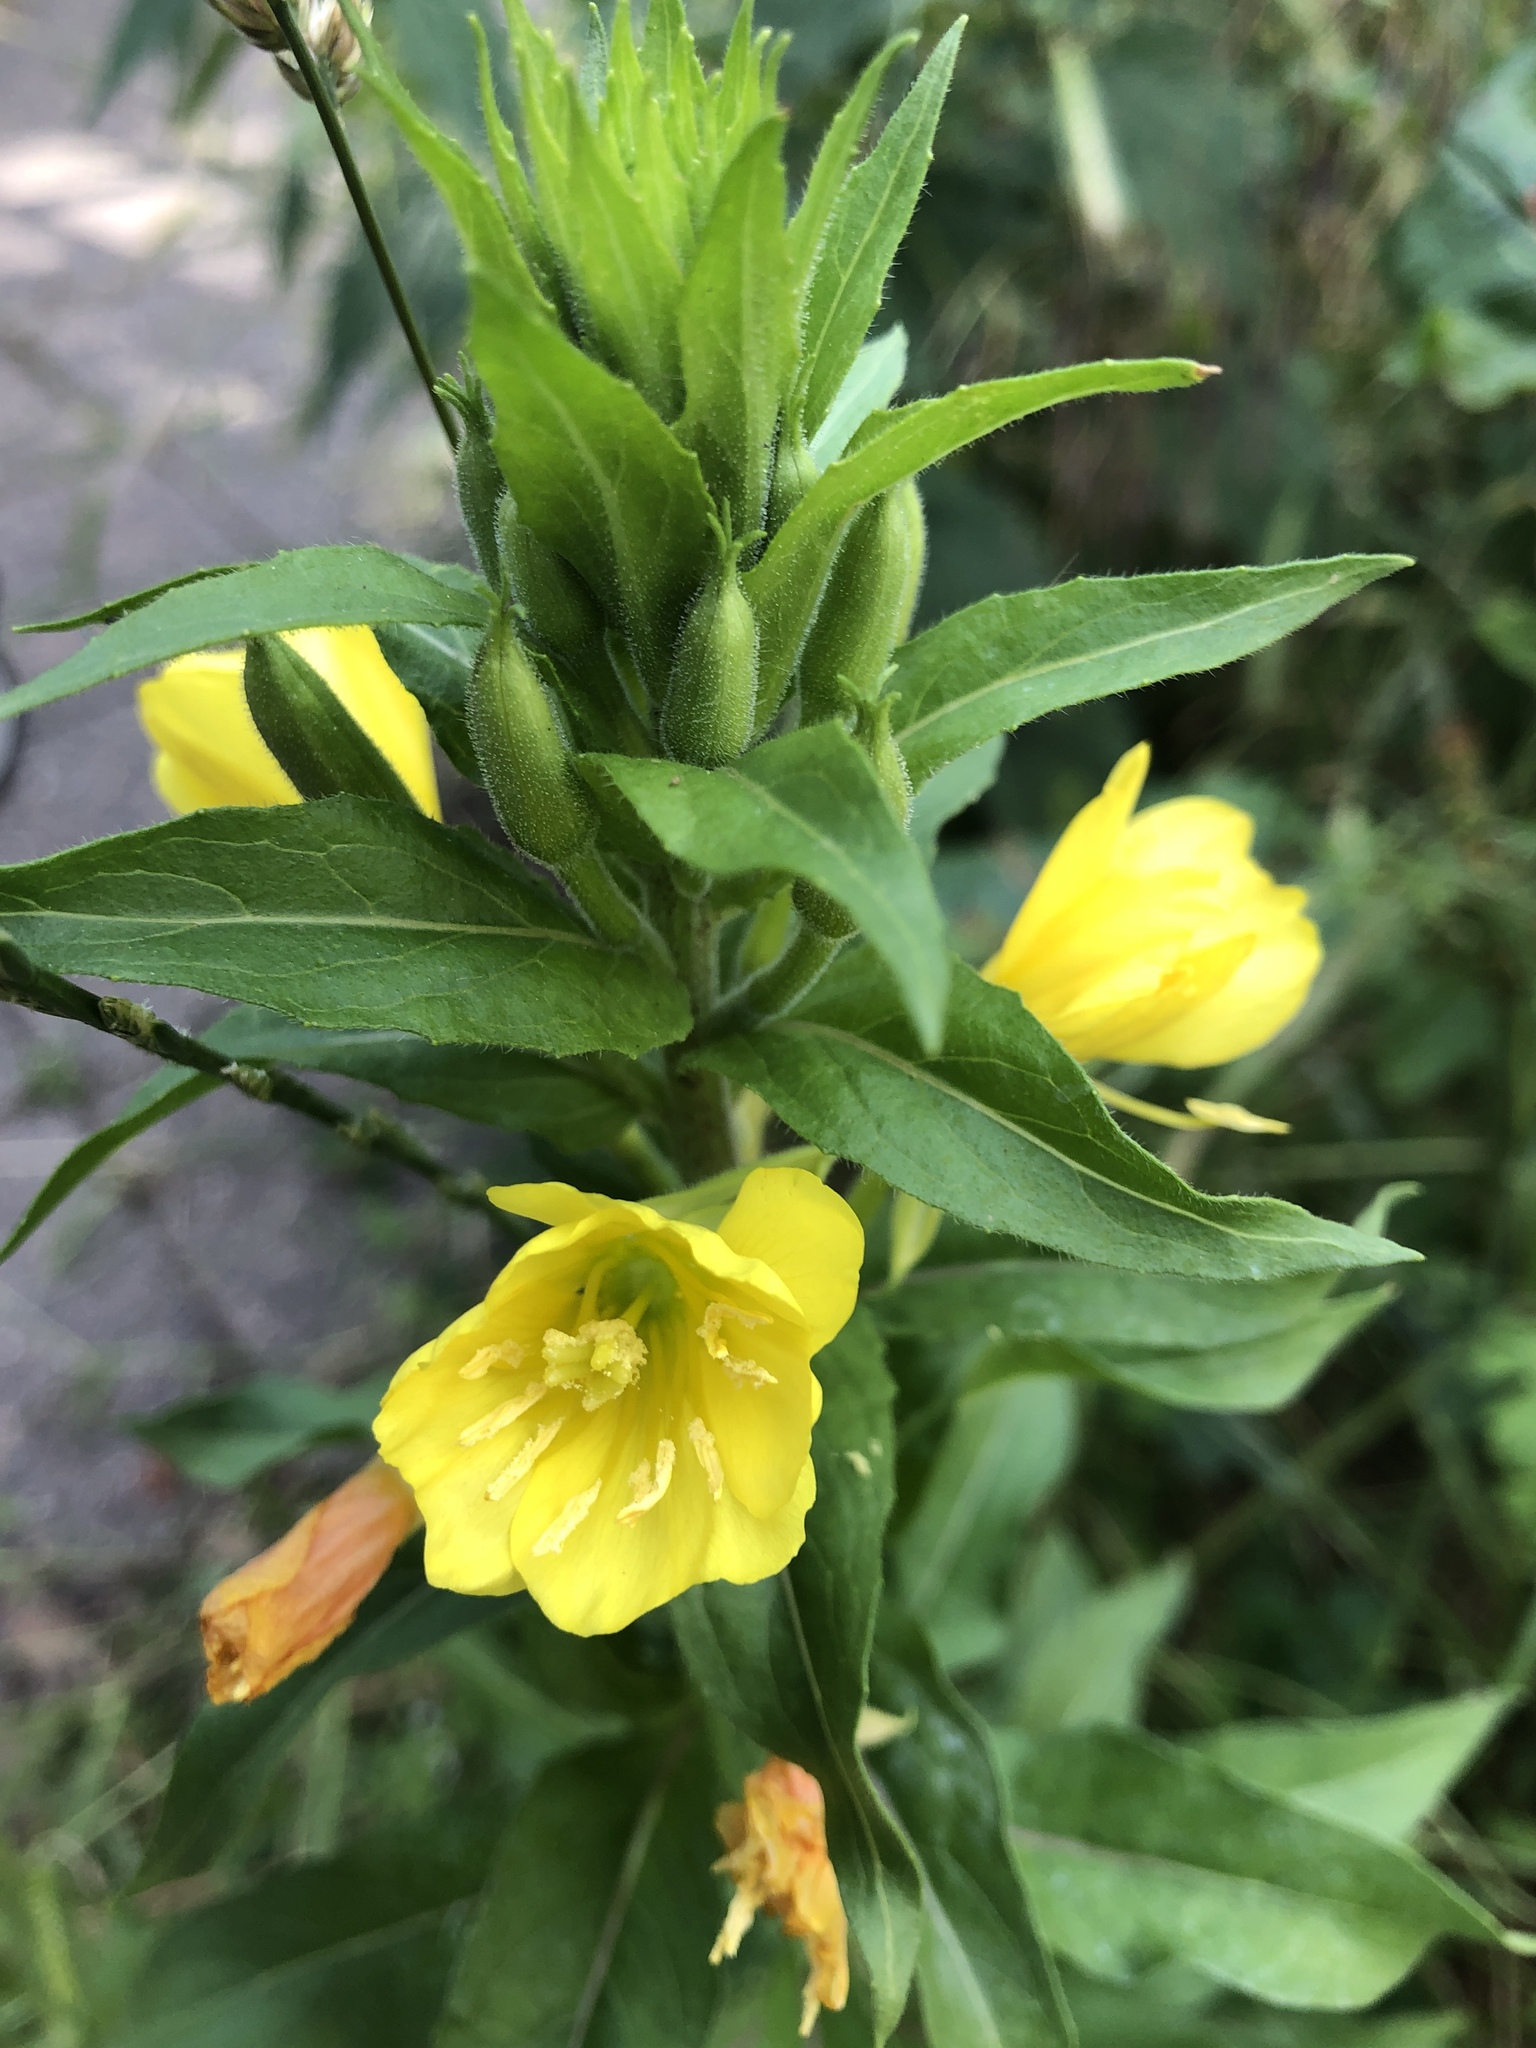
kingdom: Plantae
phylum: Tracheophyta
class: Magnoliopsida
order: Myrtales
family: Onagraceae
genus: Oenothera
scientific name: Oenothera biennis
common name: Common evening-primrose
